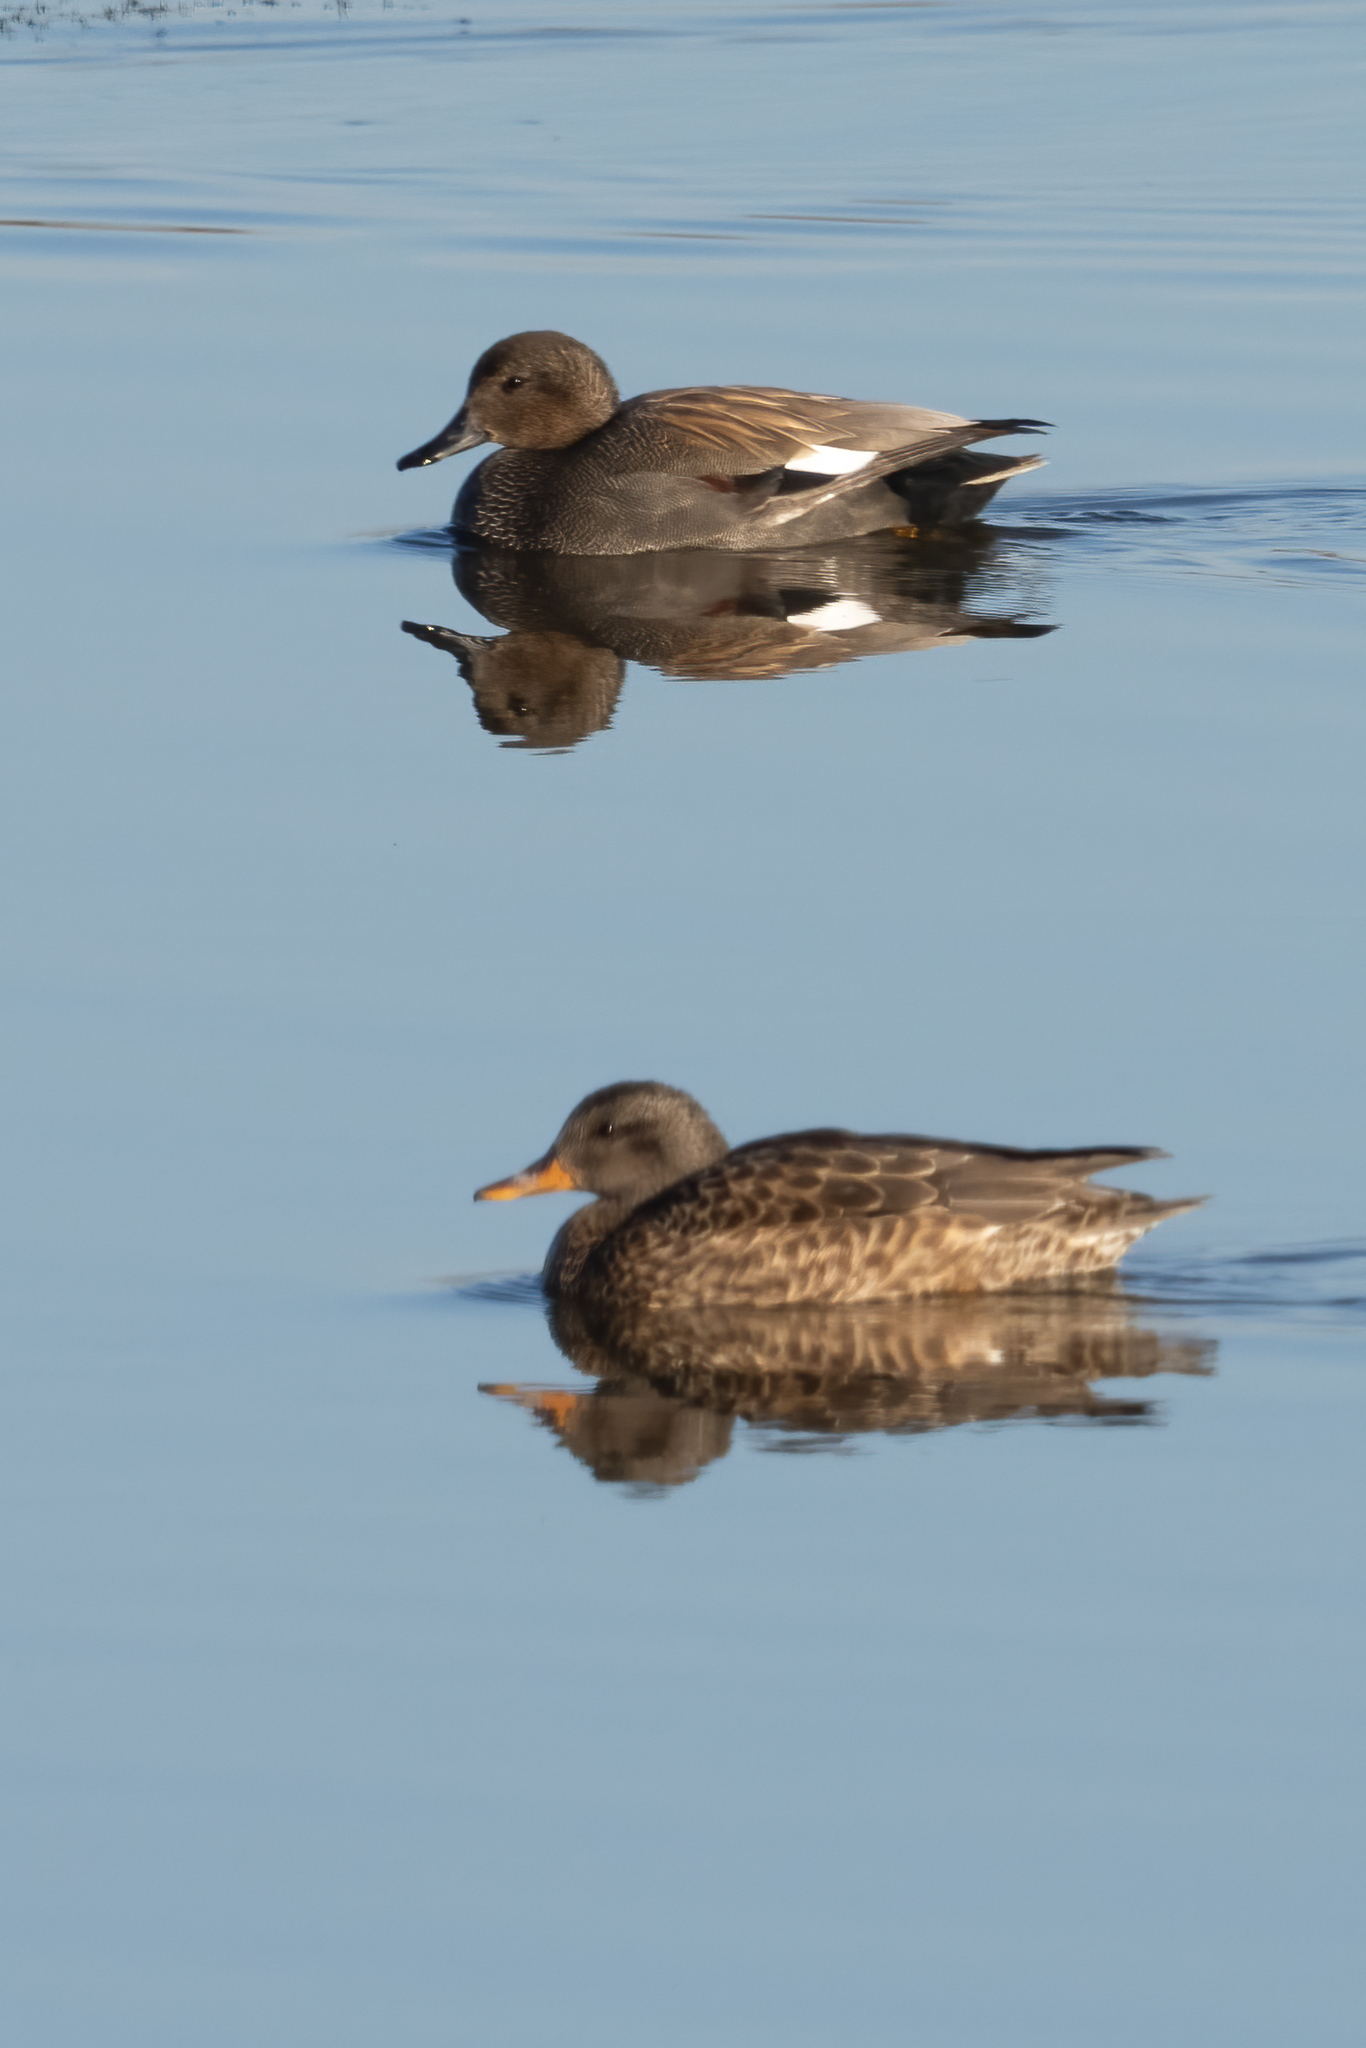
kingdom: Animalia
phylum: Chordata
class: Aves
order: Anseriformes
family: Anatidae
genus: Mareca
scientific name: Mareca strepera
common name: Gadwall
